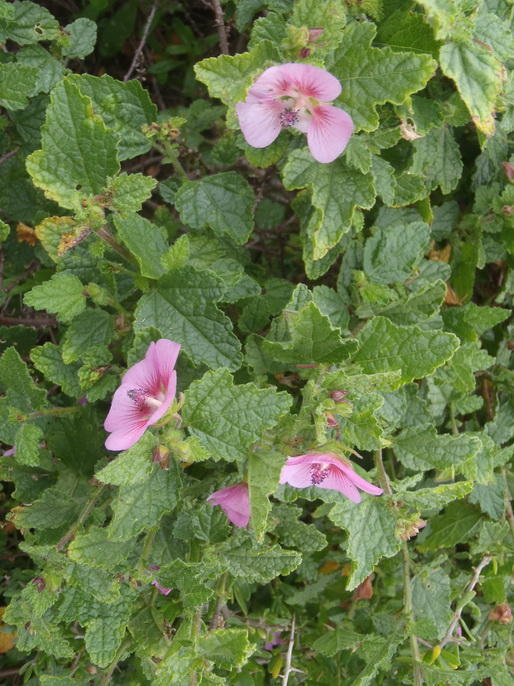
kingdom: Plantae
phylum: Tracheophyta
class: Magnoliopsida
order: Malvales
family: Malvaceae
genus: Anisodontea
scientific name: Anisodontea scabrosa
